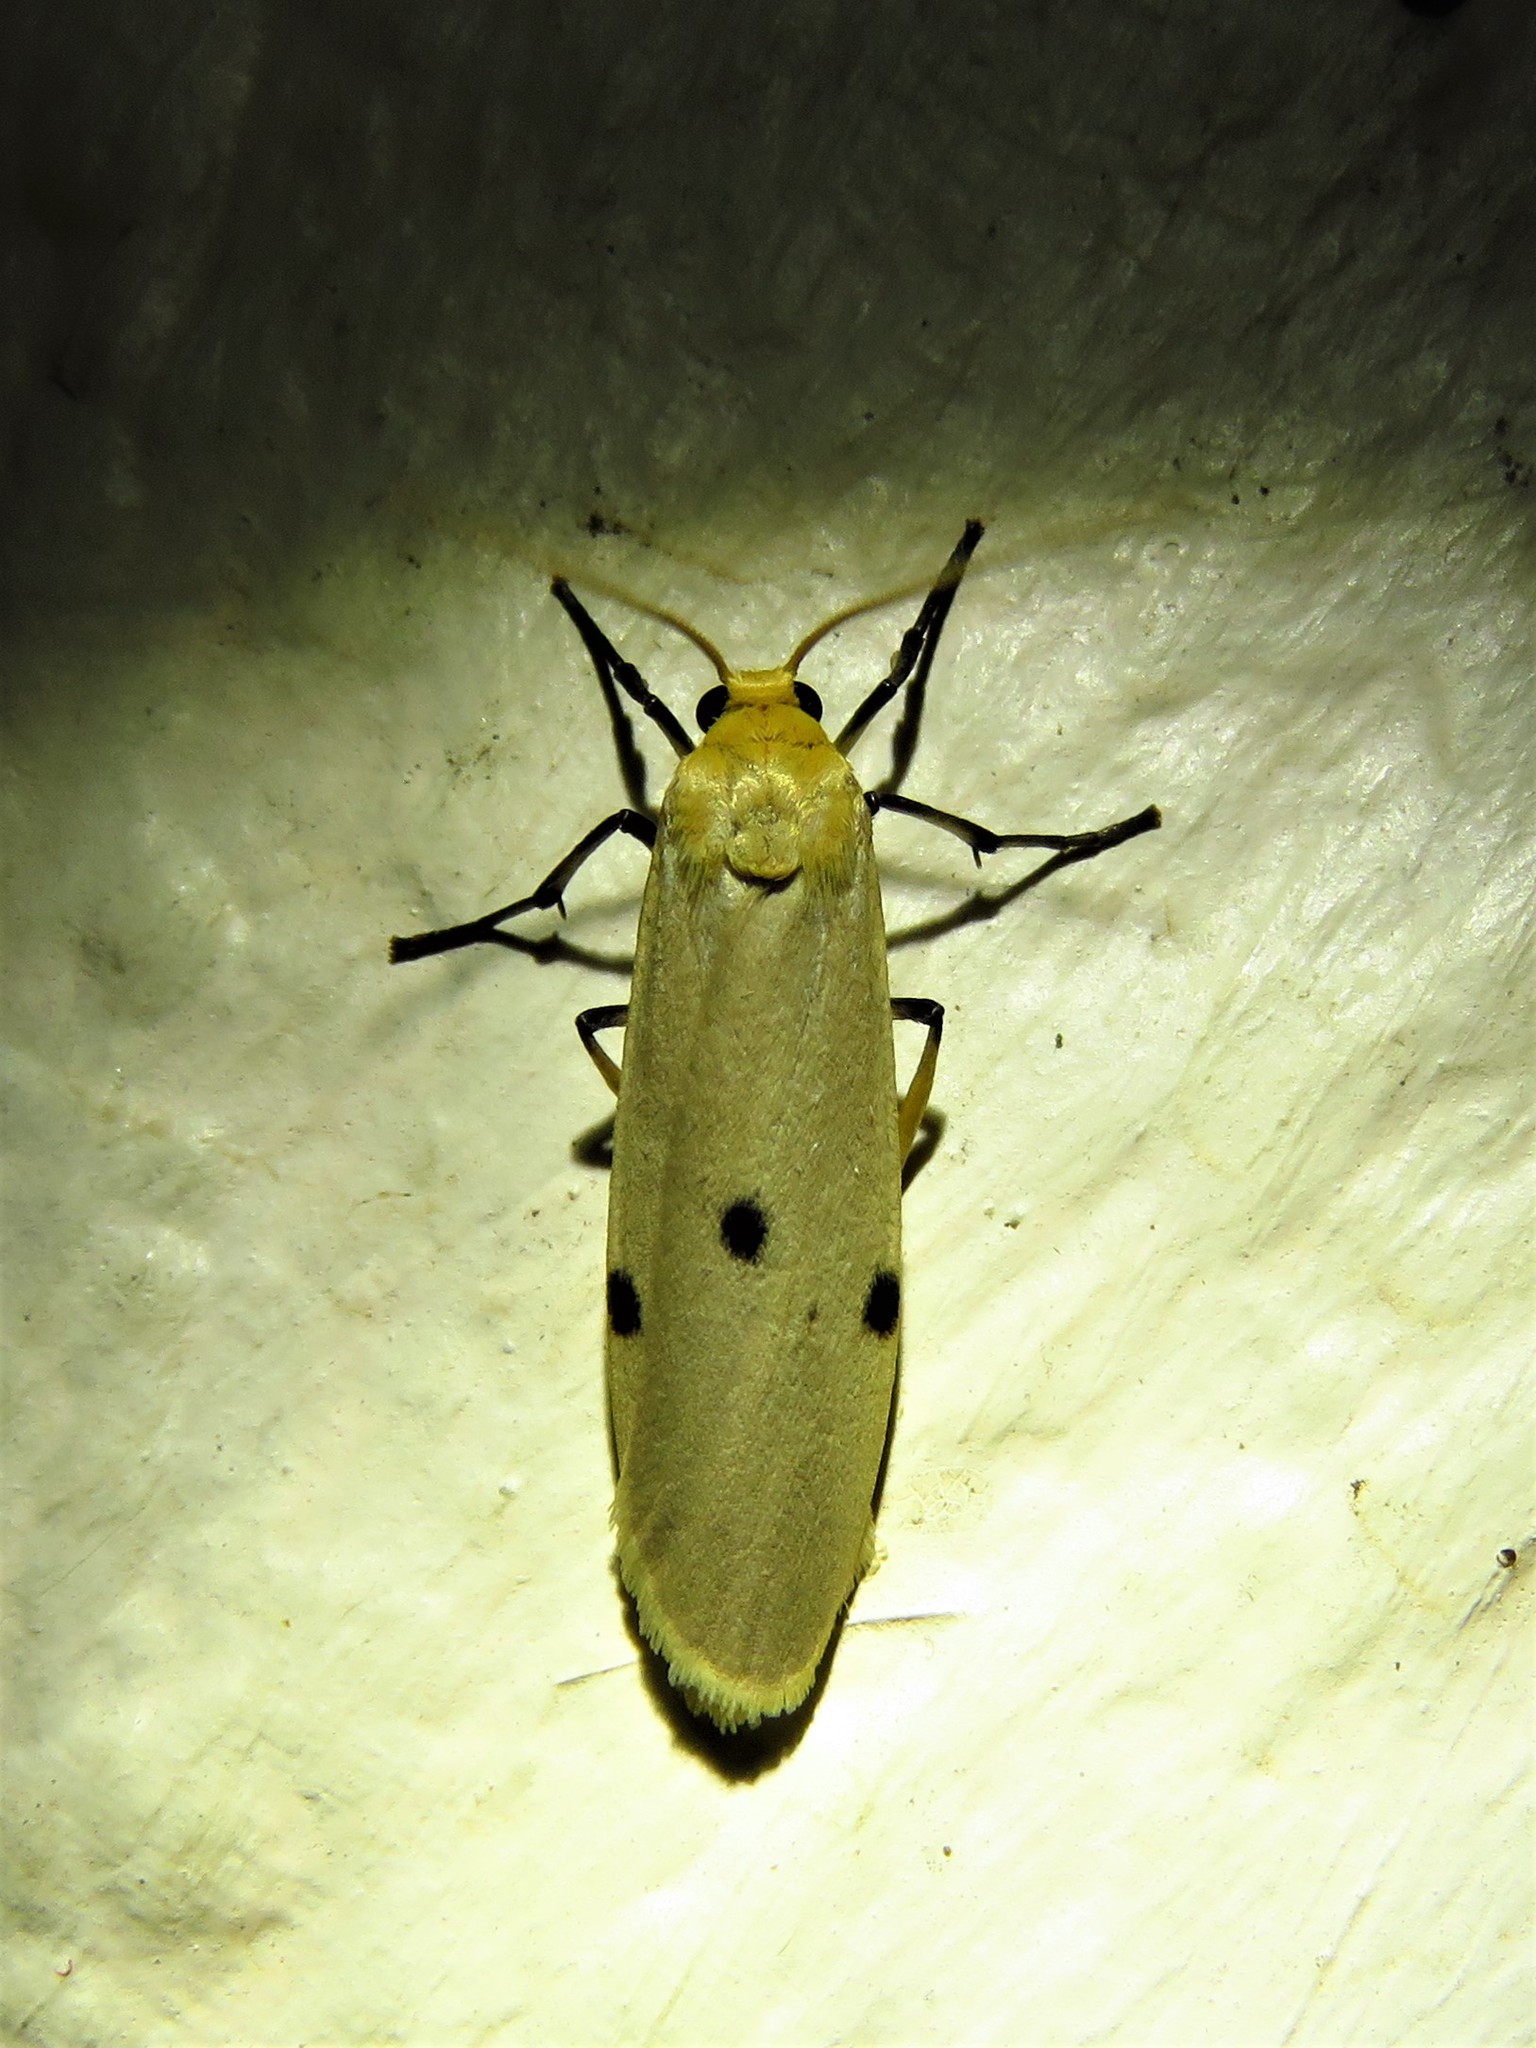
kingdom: Animalia
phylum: Arthropoda
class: Insecta
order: Lepidoptera
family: Erebidae
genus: Zobida
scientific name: Zobida similipuncta
